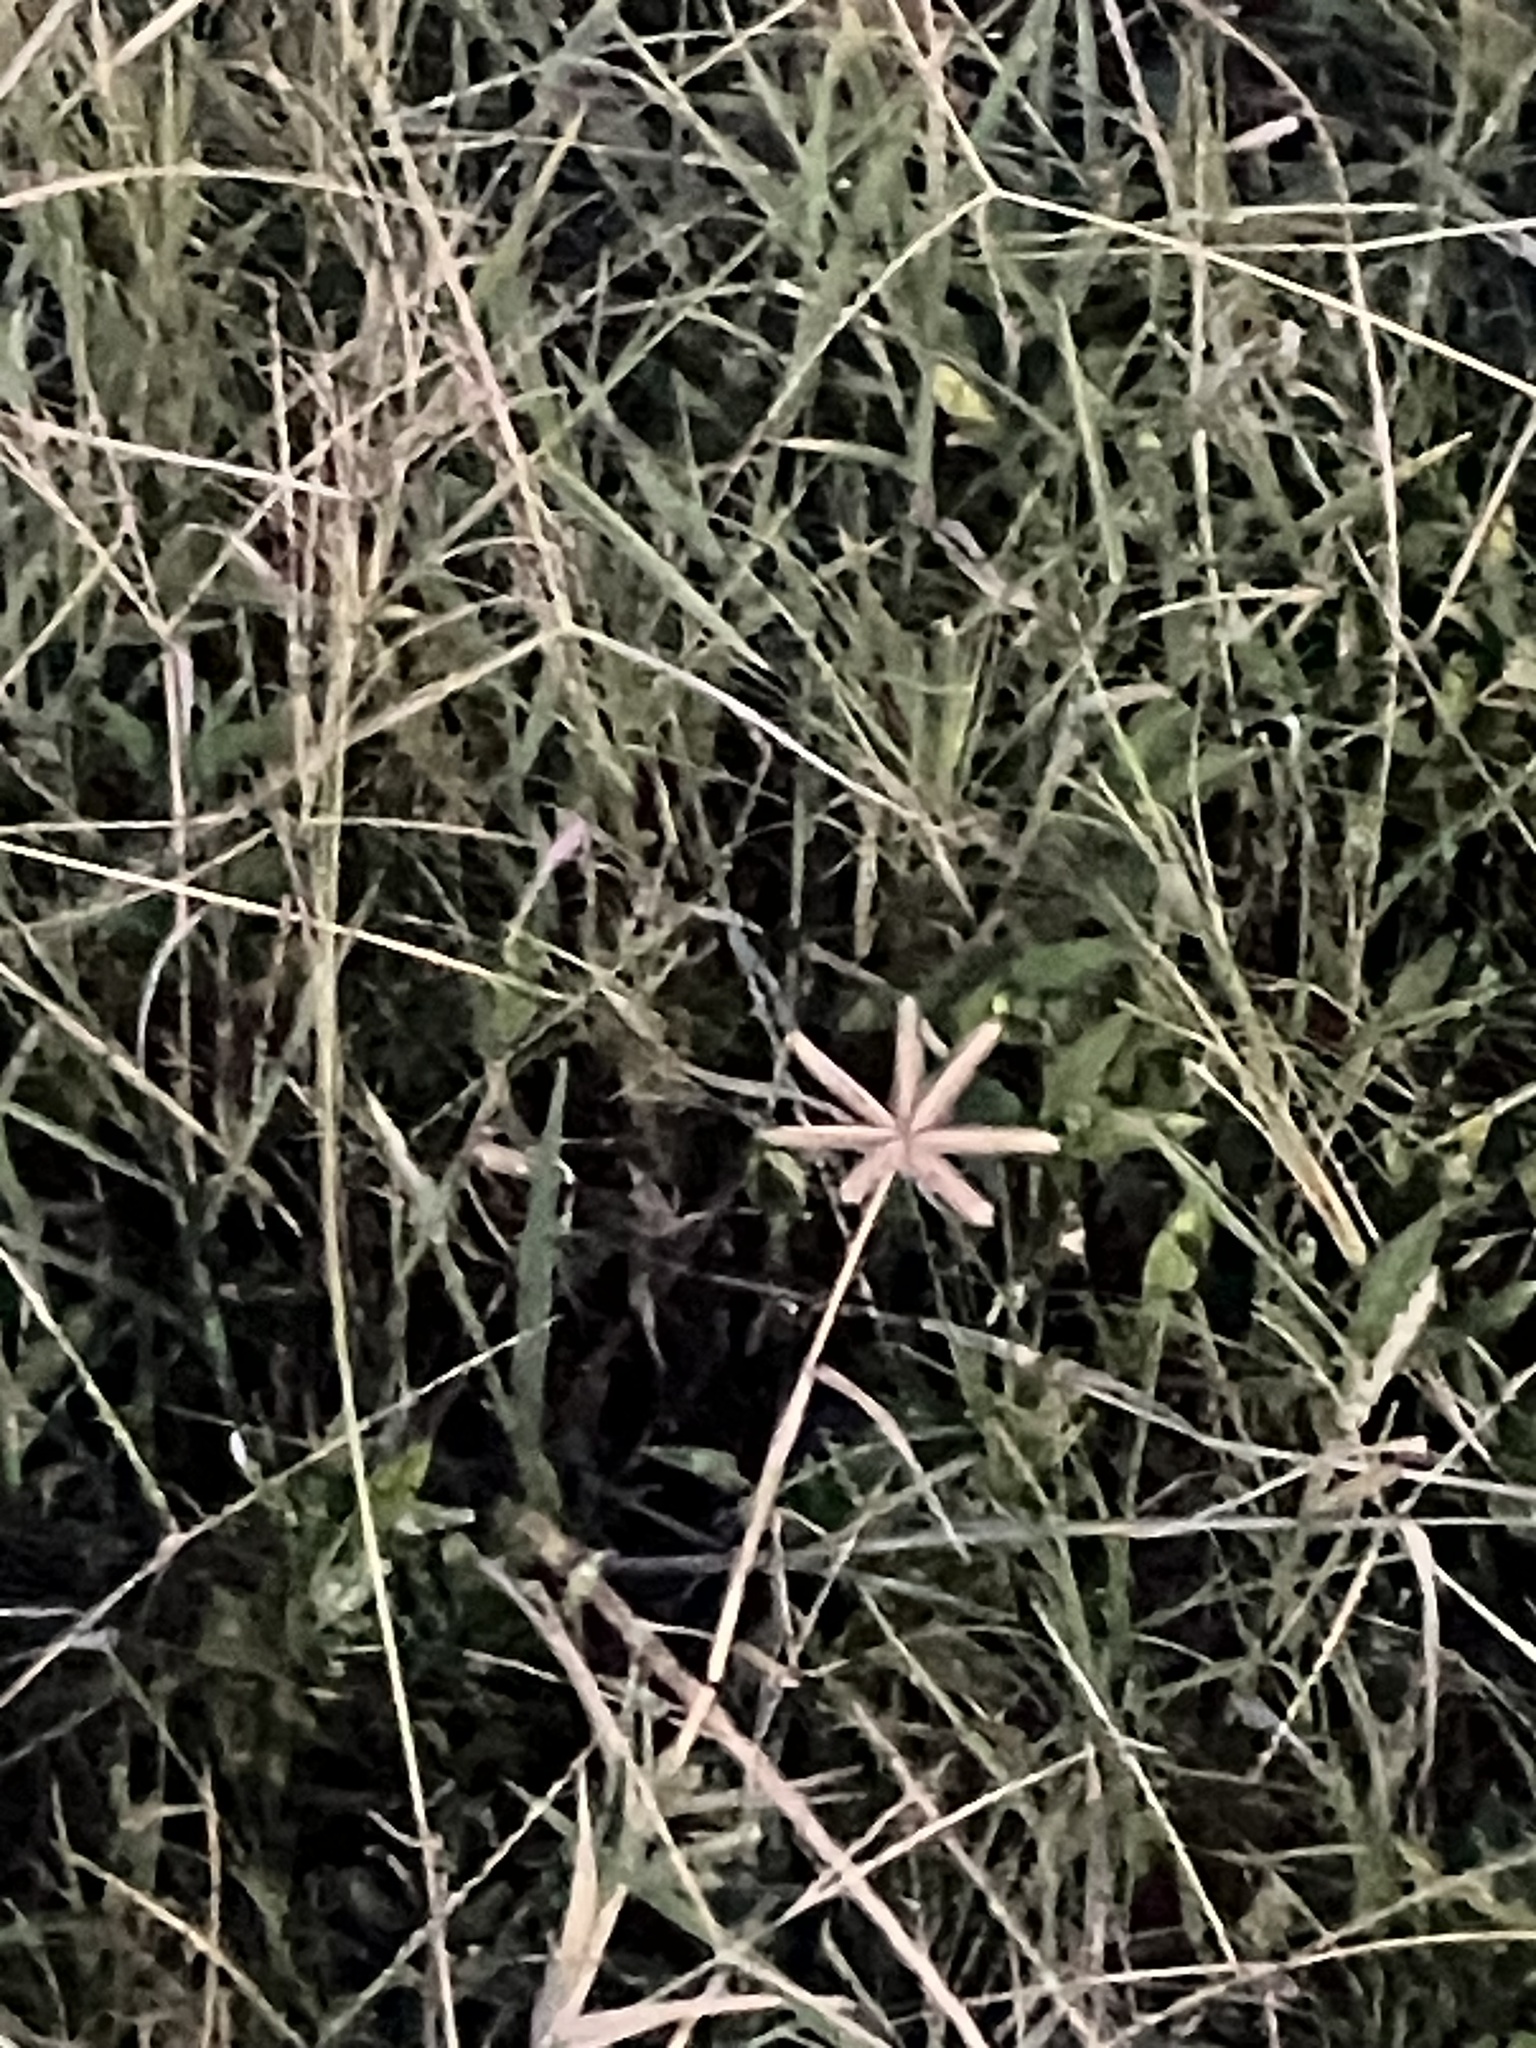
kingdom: Plantae
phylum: Tracheophyta
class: Liliopsida
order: Poales
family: Poaceae
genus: Dactyloctenium
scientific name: Dactyloctenium aegyptium
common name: Egyptian grass
